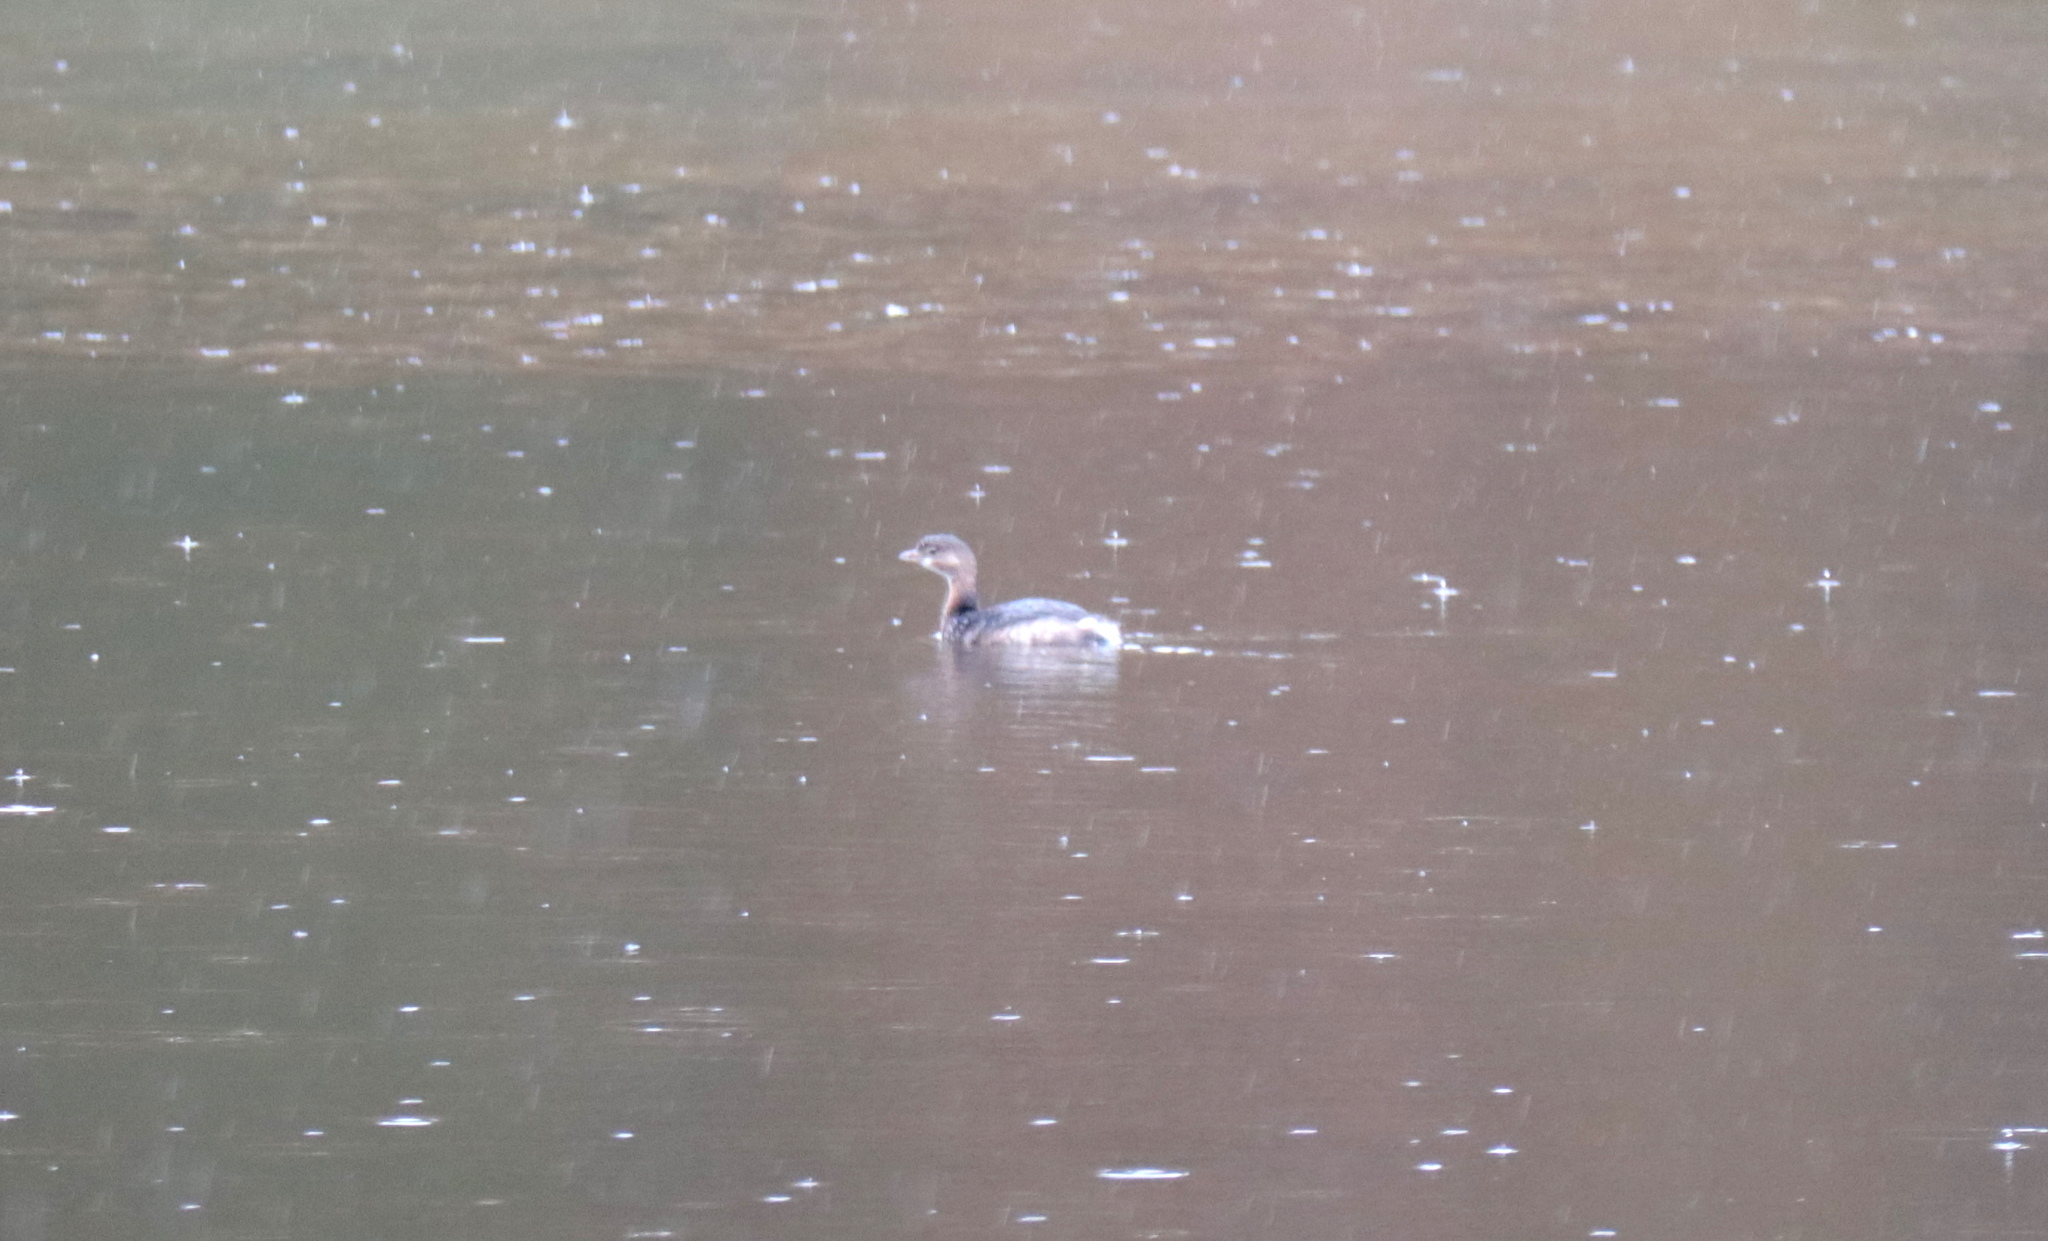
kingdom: Animalia
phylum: Chordata
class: Aves
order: Podicipediformes
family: Podicipedidae
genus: Podilymbus
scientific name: Podilymbus podiceps
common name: Pied-billed grebe
